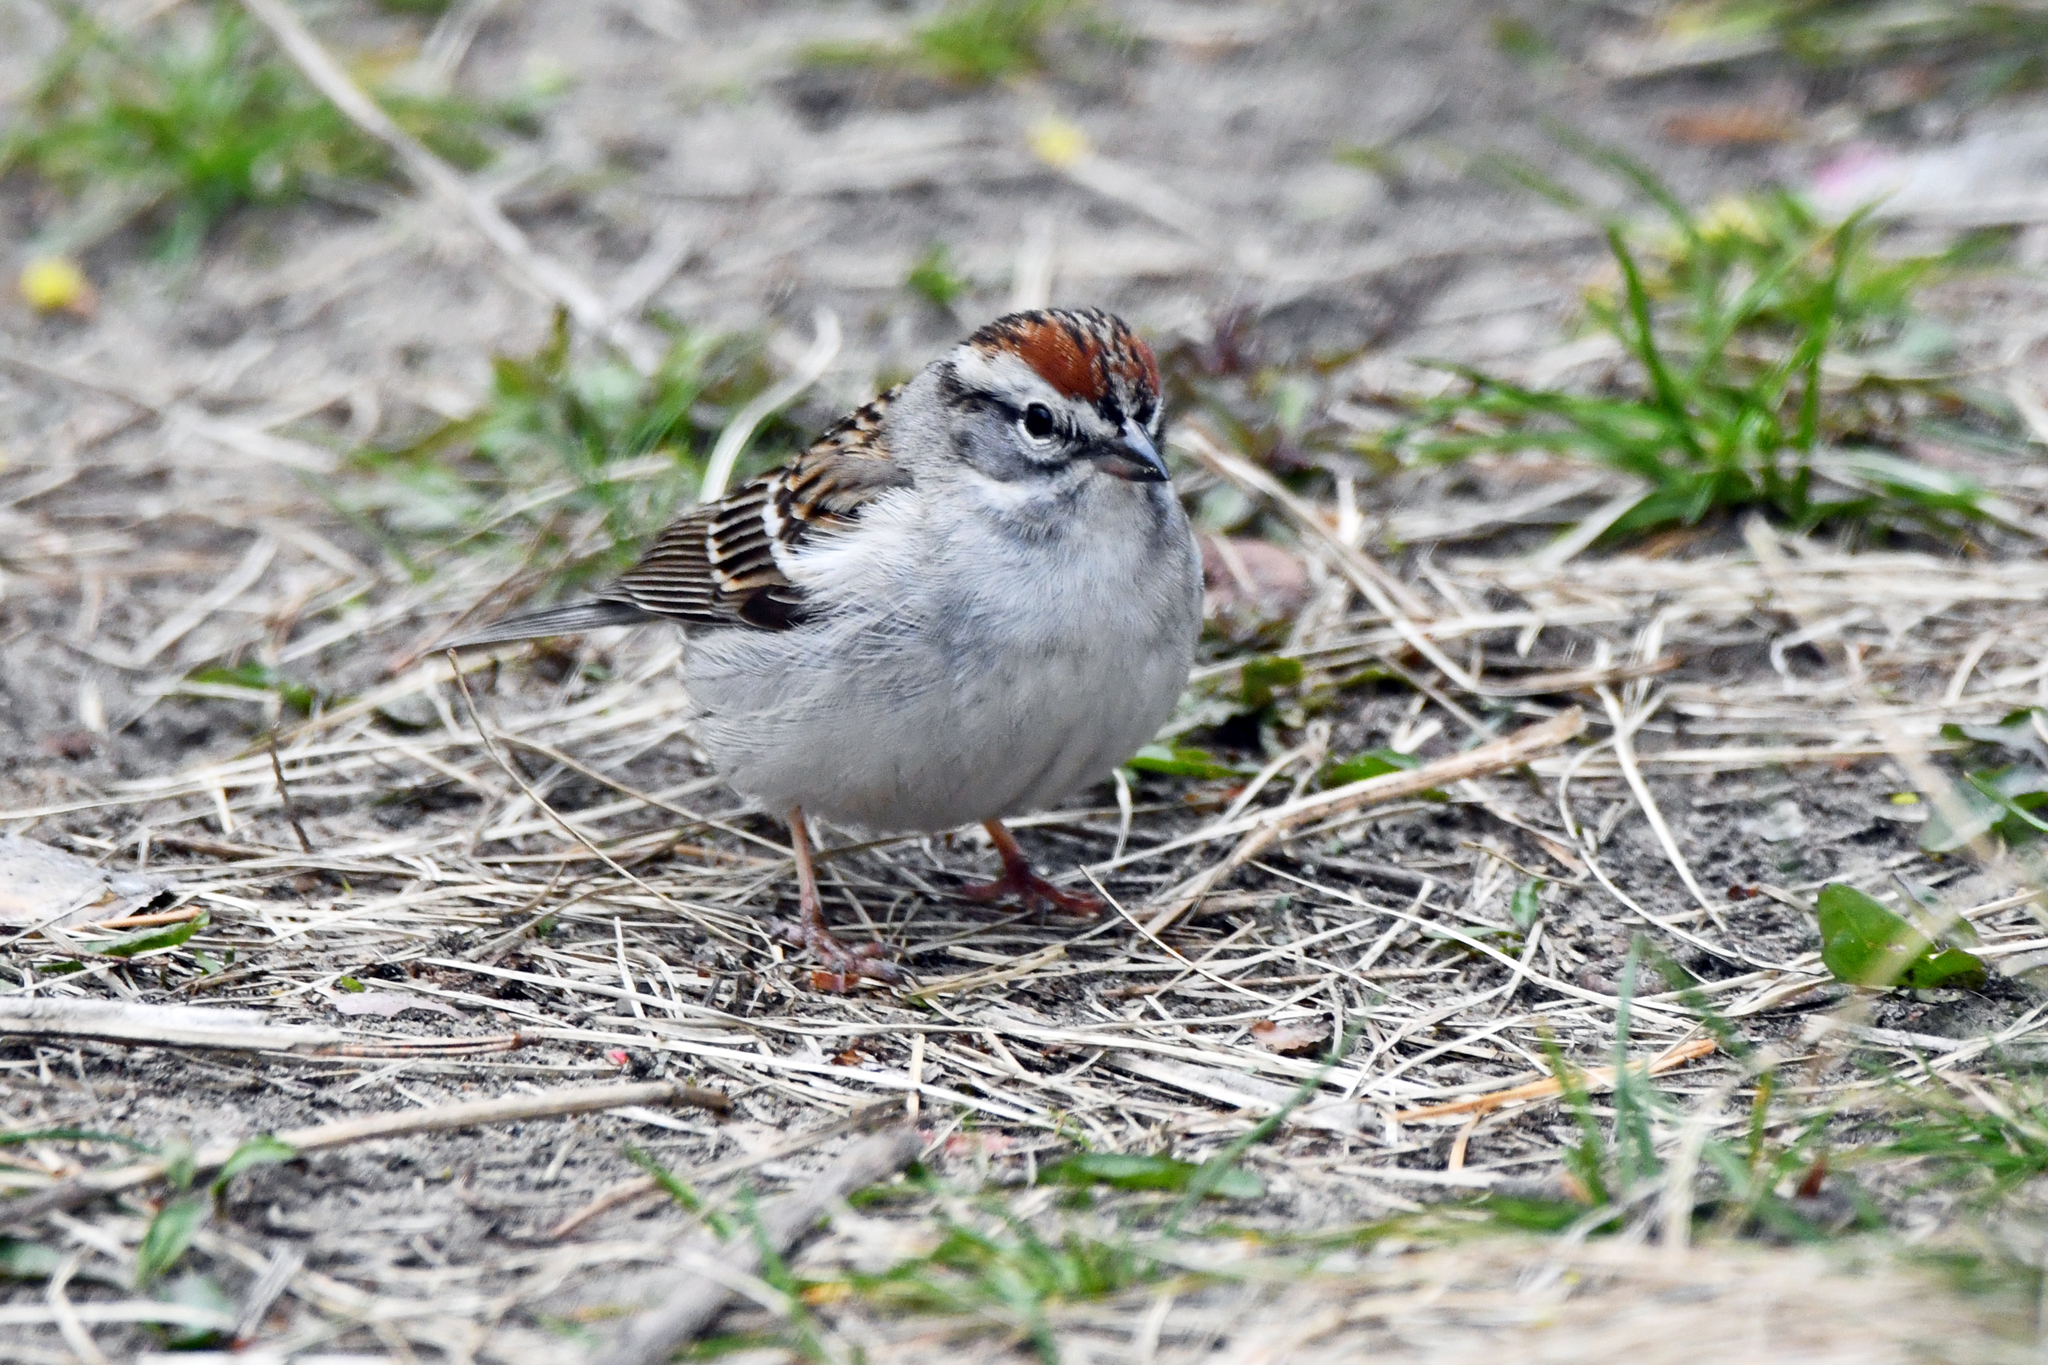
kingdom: Animalia
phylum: Chordata
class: Aves
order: Passeriformes
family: Passerellidae
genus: Spizella
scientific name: Spizella passerina
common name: Chipping sparrow
